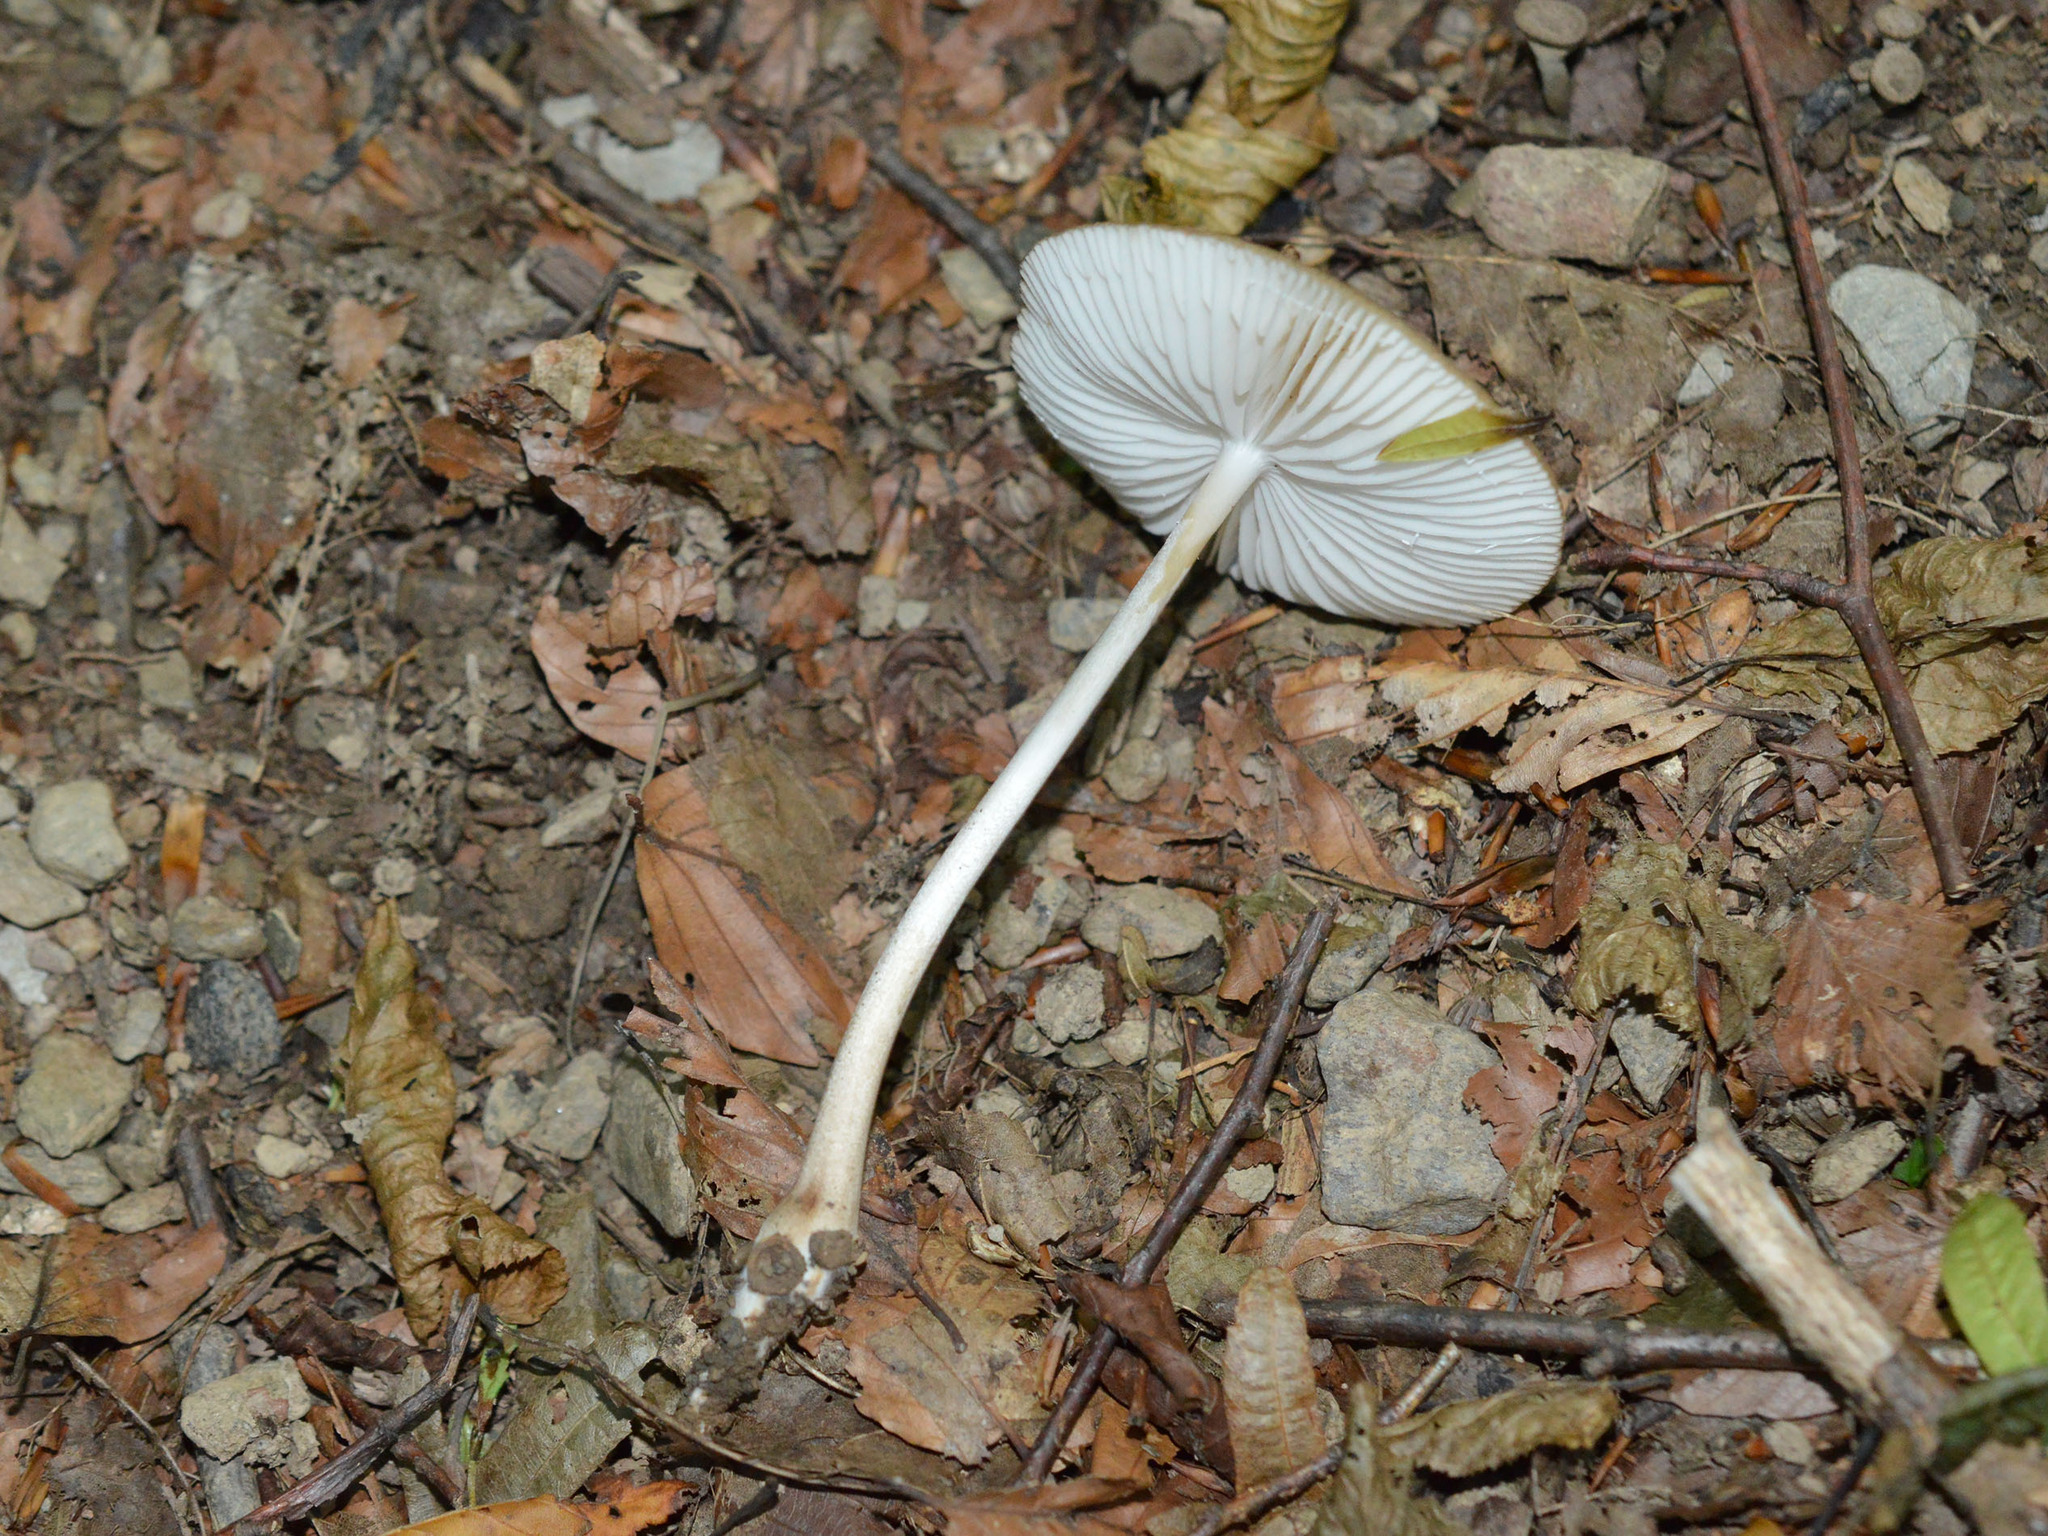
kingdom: Fungi
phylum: Basidiomycota
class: Agaricomycetes
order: Agaricales
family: Physalacriaceae
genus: Hymenopellis
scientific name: Hymenopellis radicata
